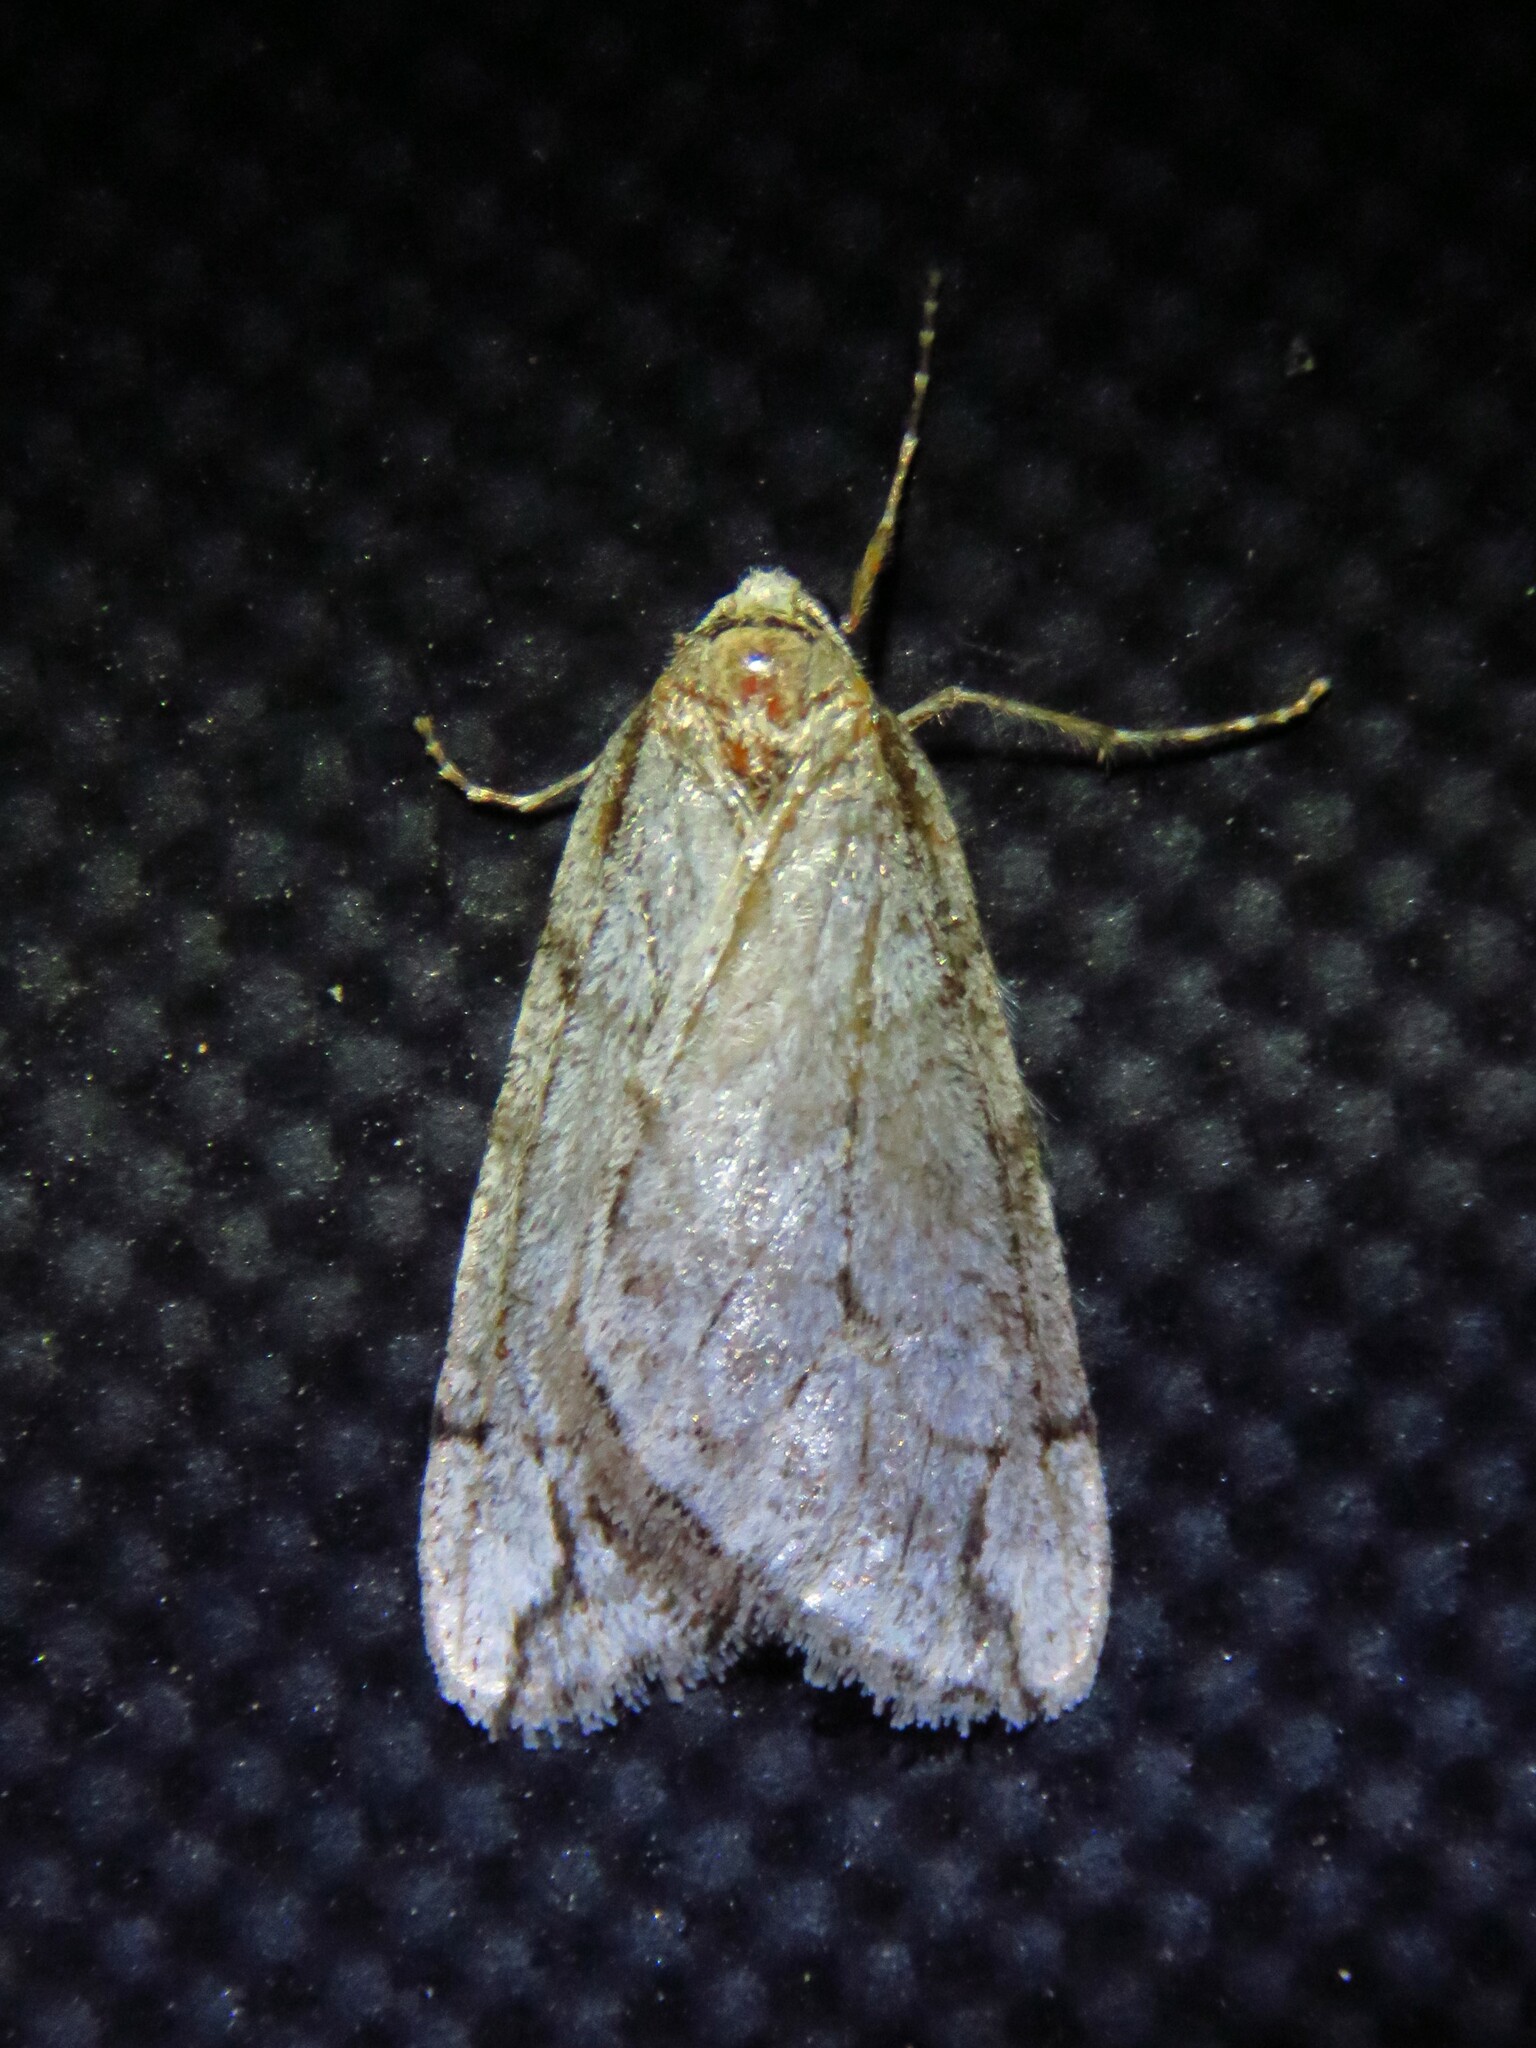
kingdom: Animalia
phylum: Arthropoda
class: Insecta
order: Lepidoptera
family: Geometridae
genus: Paleacrita
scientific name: Paleacrita vernata
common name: Spring cankerworm
